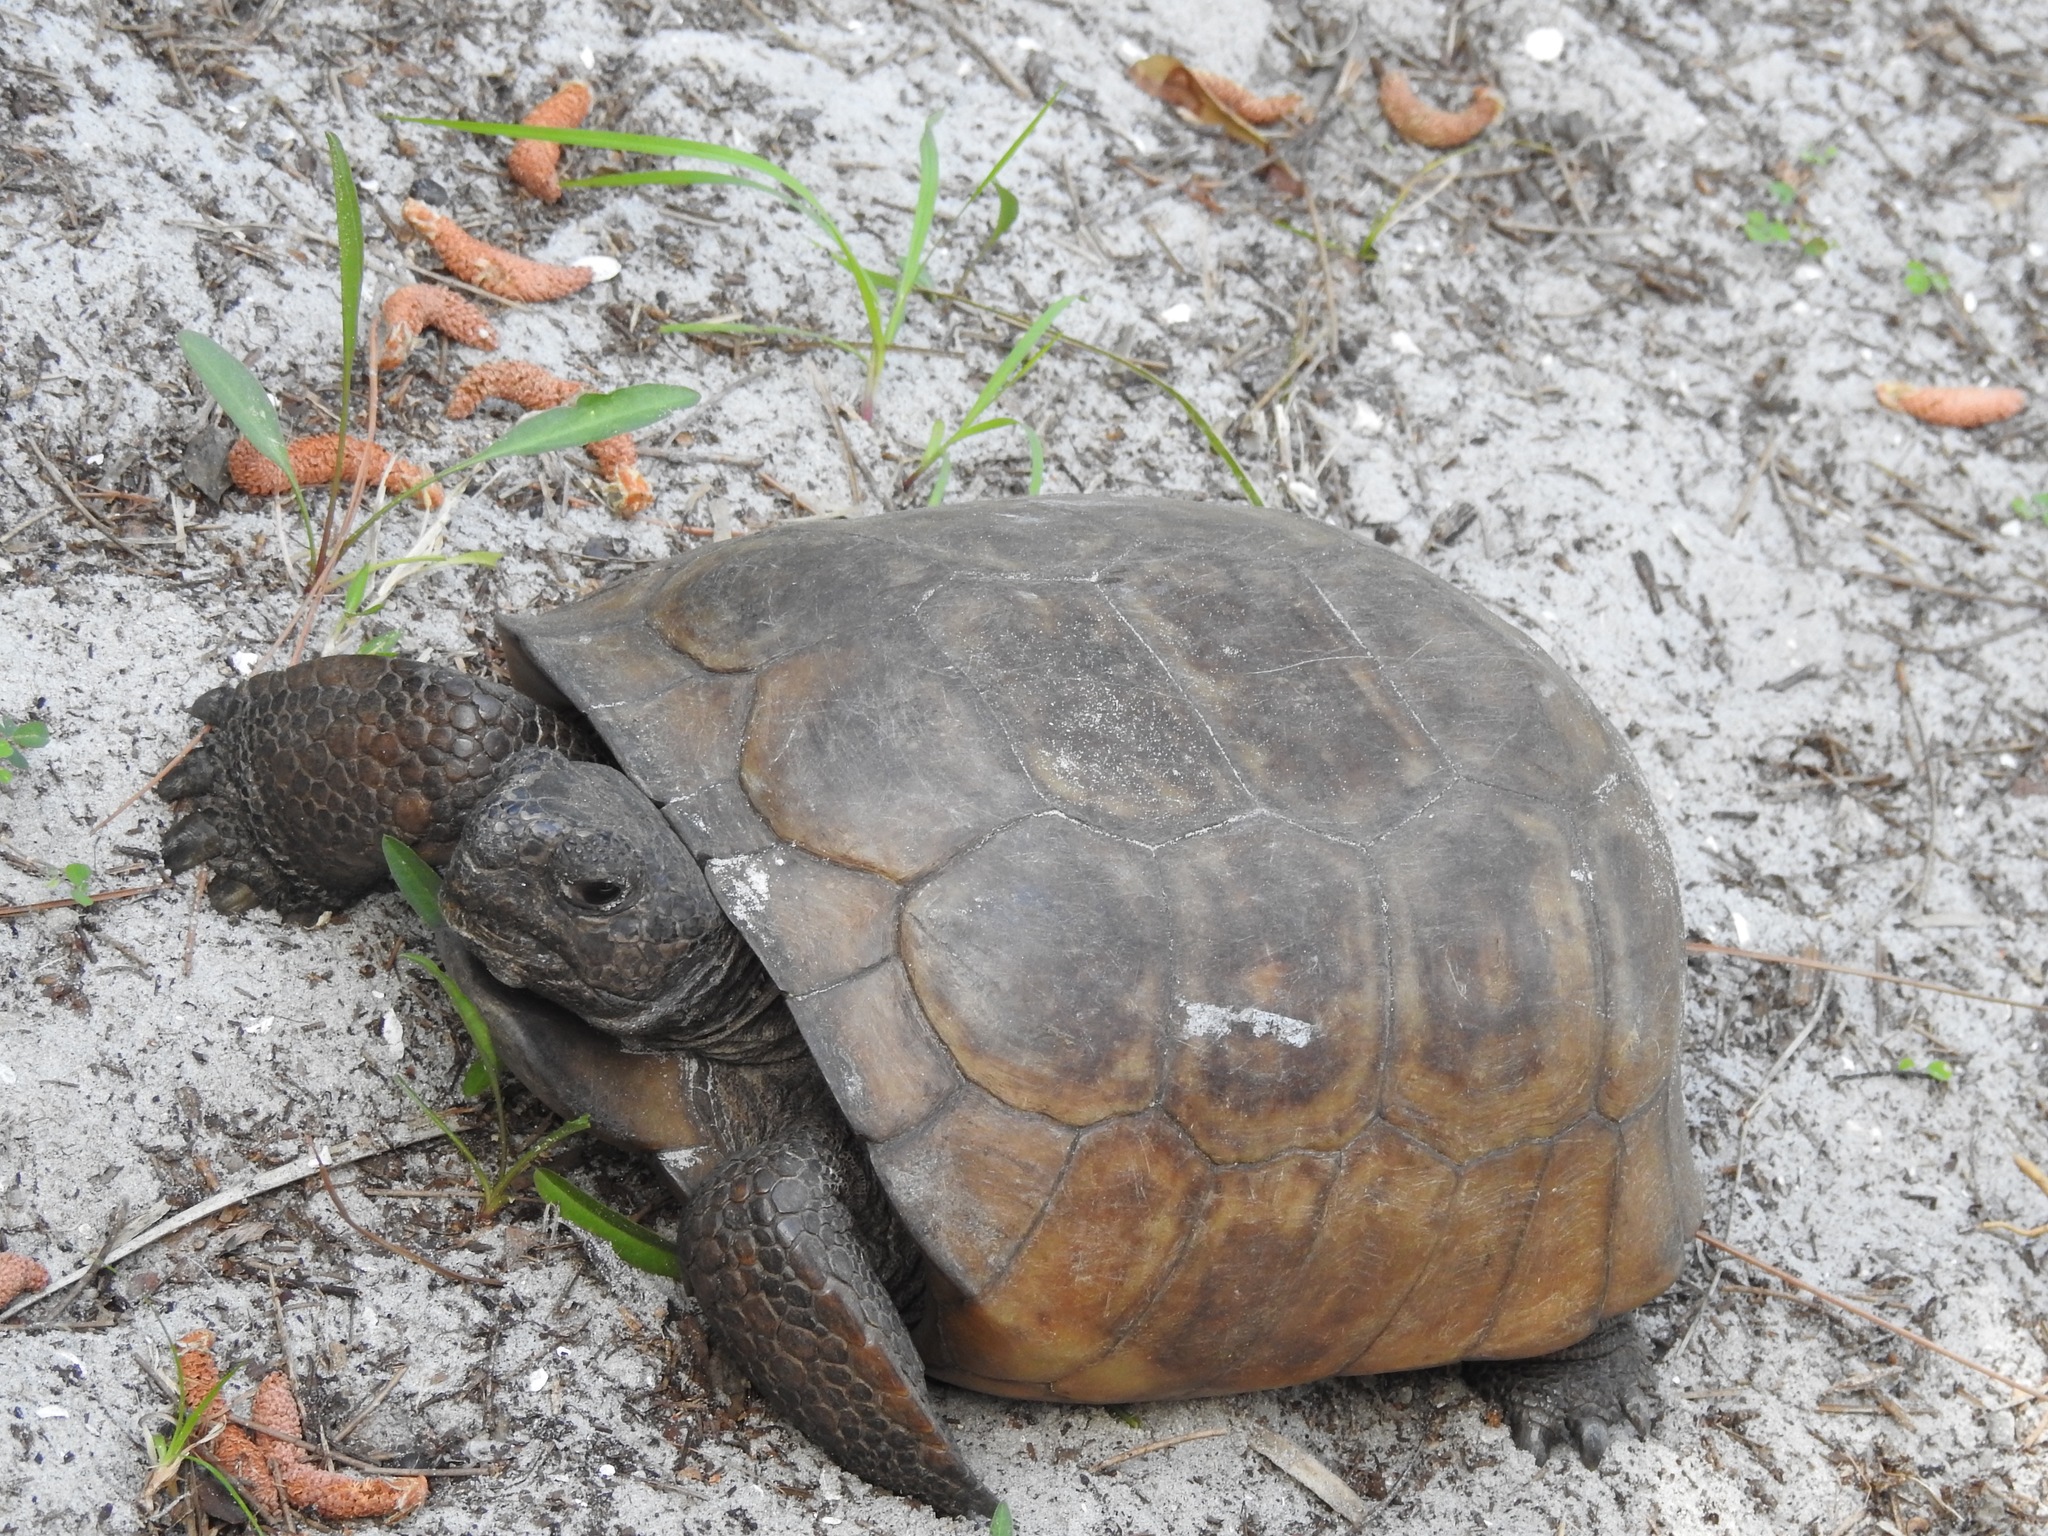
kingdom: Animalia
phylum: Chordata
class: Testudines
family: Testudinidae
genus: Gopherus
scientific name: Gopherus polyphemus
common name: Florida gopher tortoise
